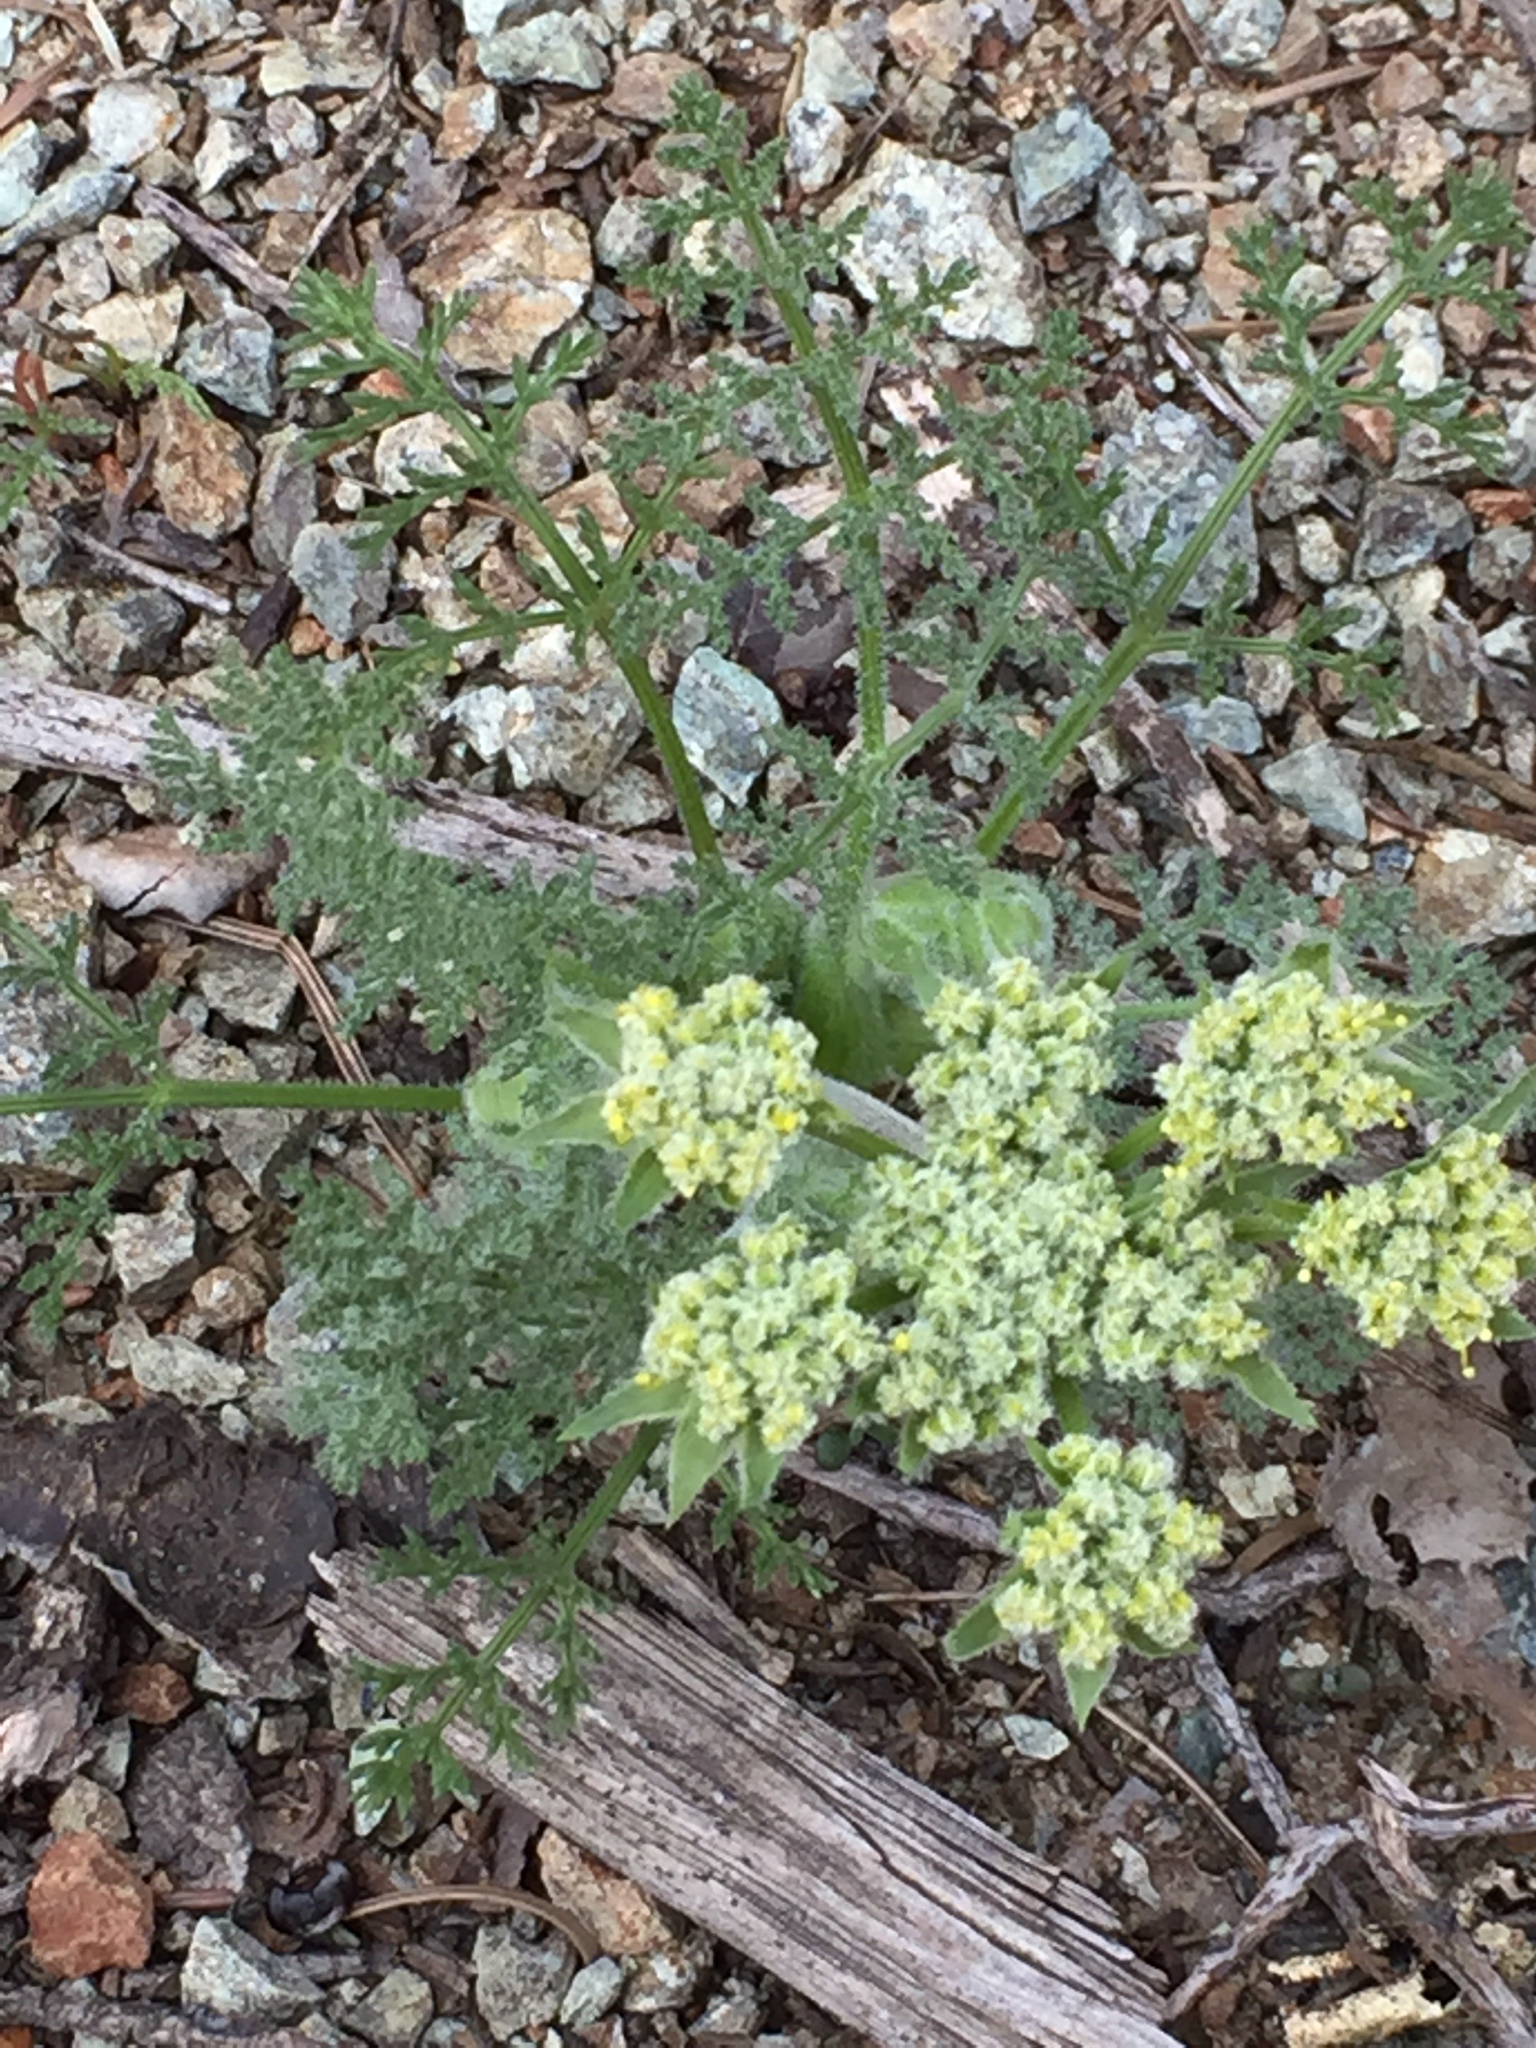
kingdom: Plantae
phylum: Tracheophyta
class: Magnoliopsida
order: Apiales
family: Apiaceae
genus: Lomatium
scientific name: Lomatium dasycarpum
